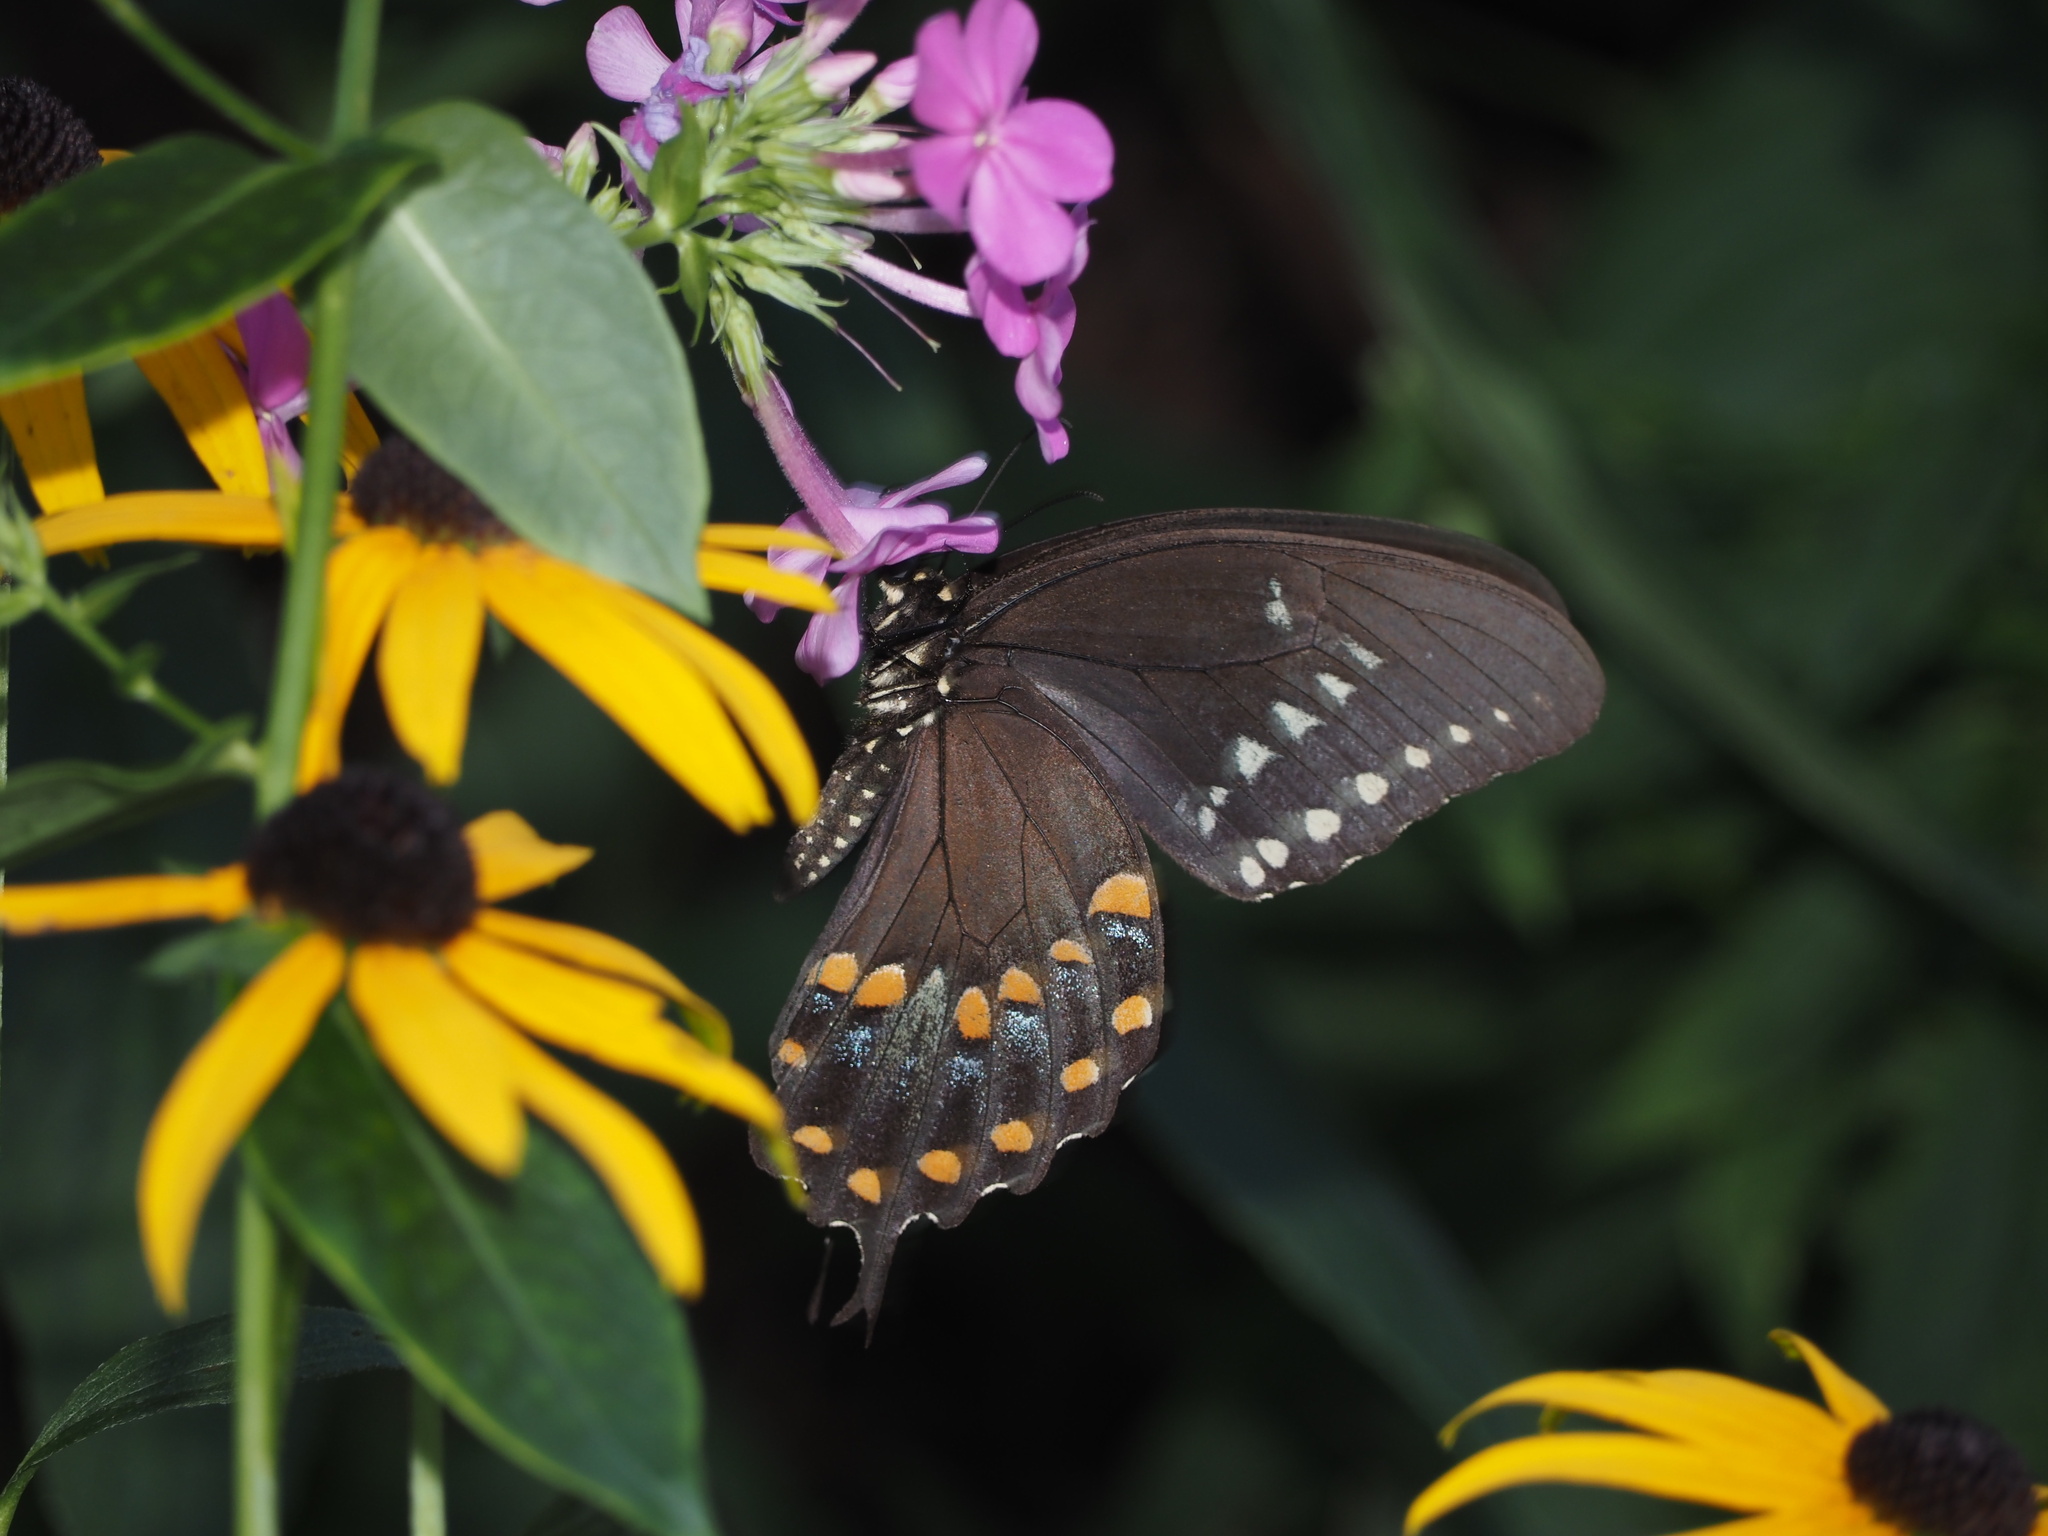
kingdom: Animalia
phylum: Arthropoda
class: Insecta
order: Lepidoptera
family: Papilionidae
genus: Papilio
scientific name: Papilio troilus
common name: Spicebush swallowtail
